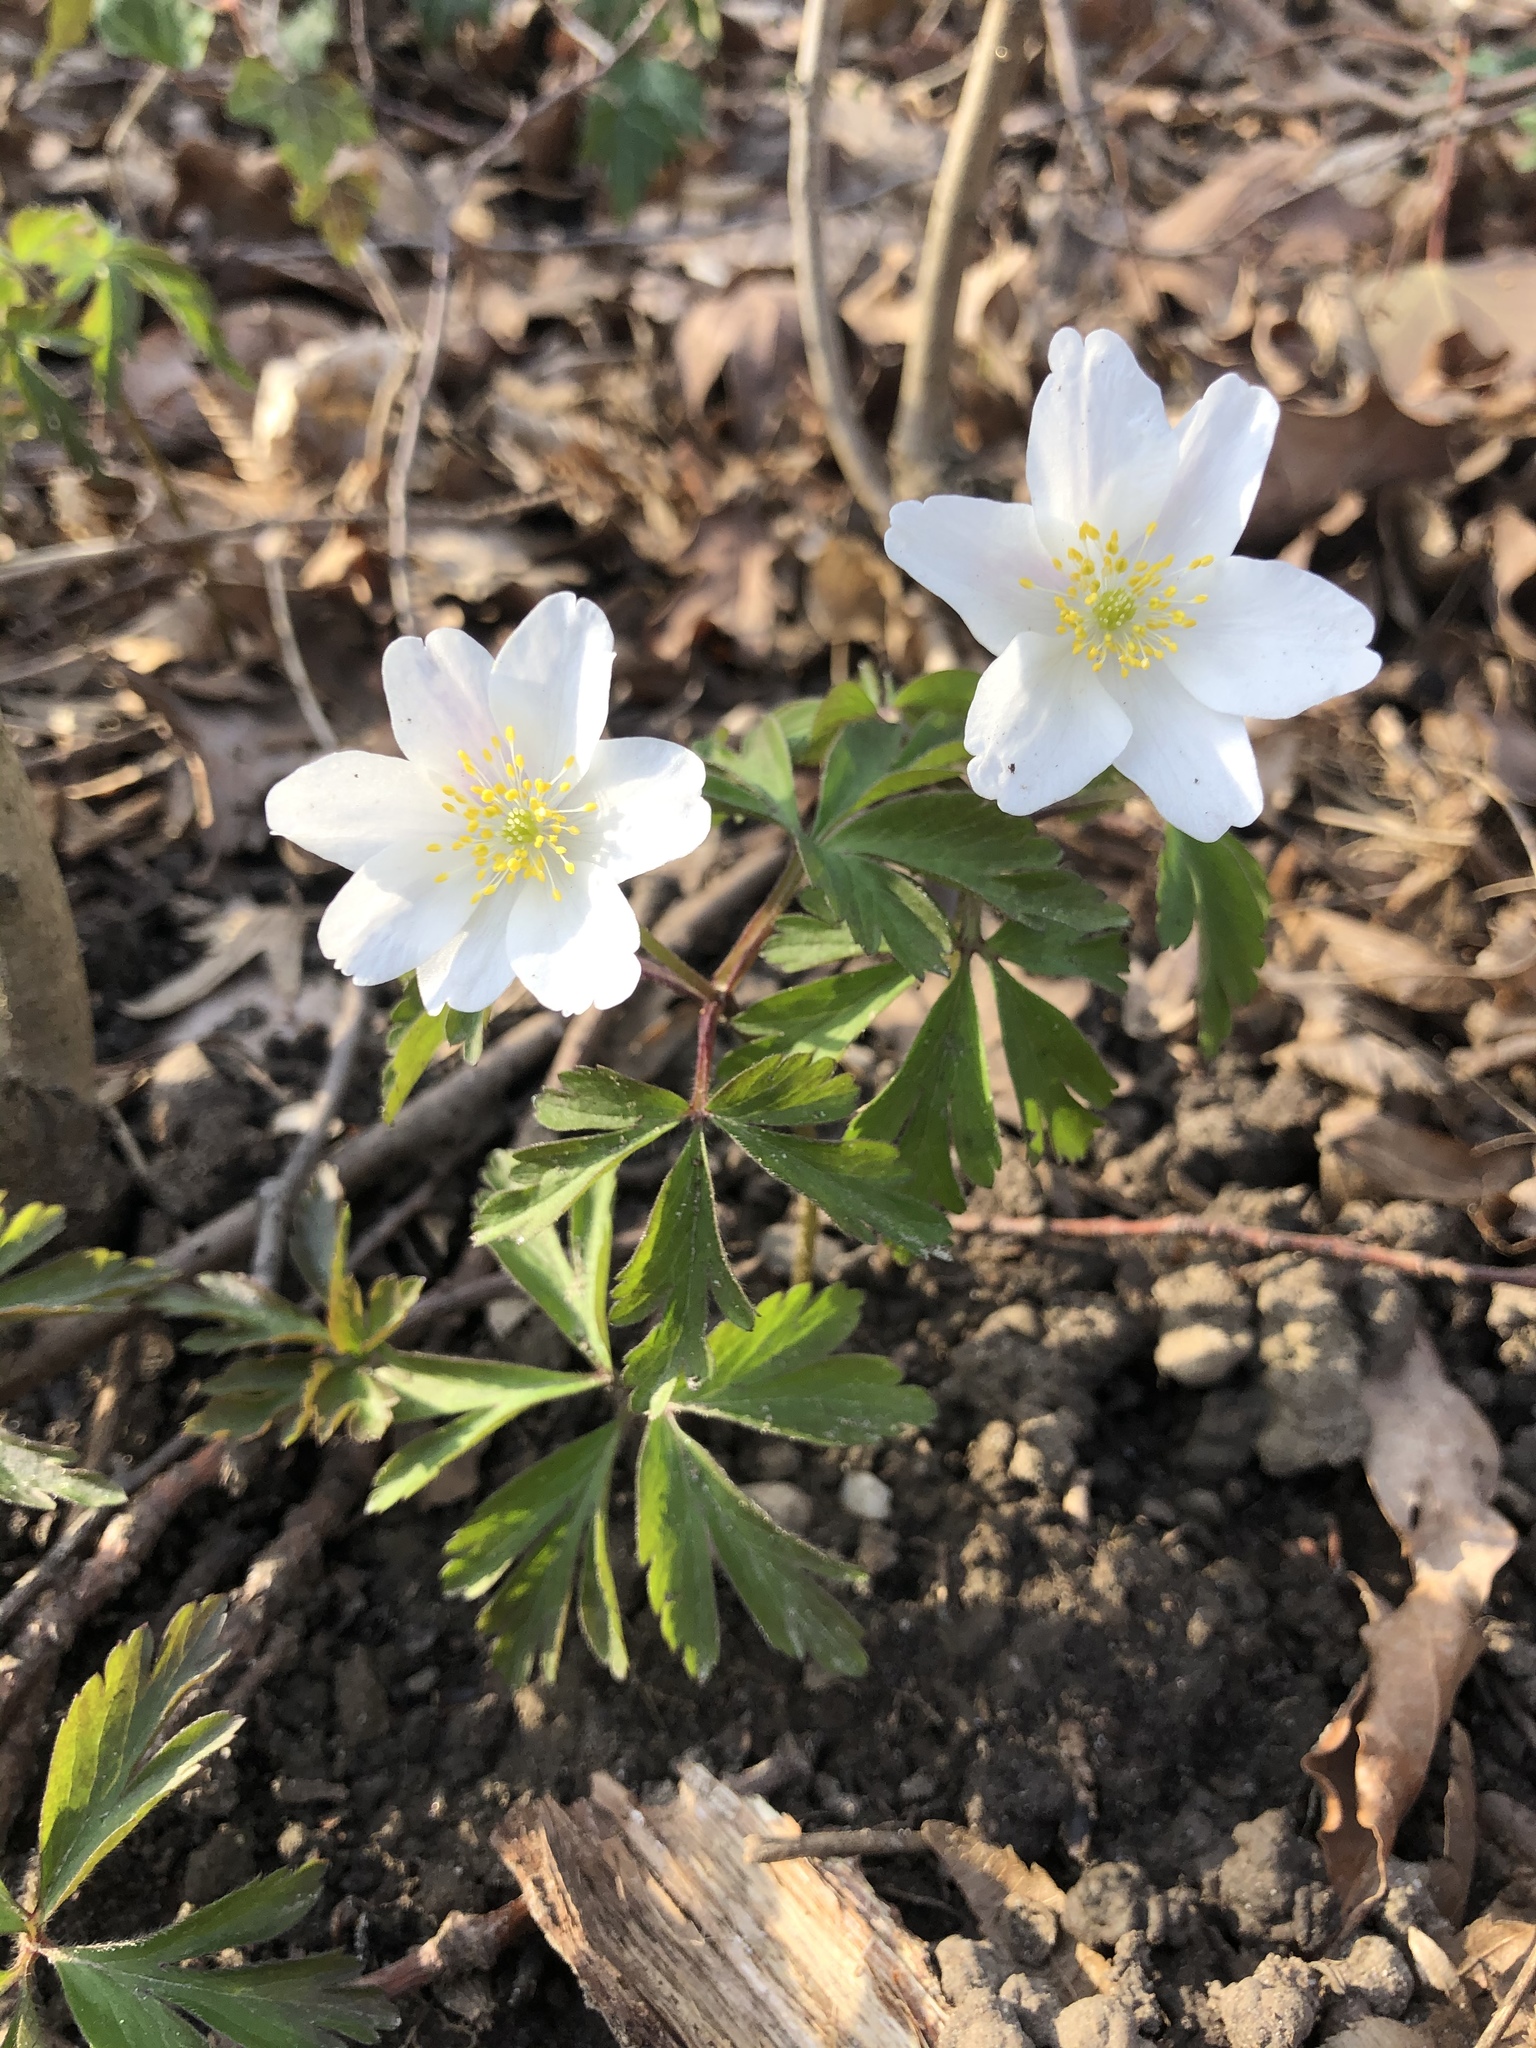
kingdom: Plantae
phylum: Tracheophyta
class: Magnoliopsida
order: Ranunculales
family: Ranunculaceae
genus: Anemone
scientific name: Anemone nemorosa
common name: Wood anemone
